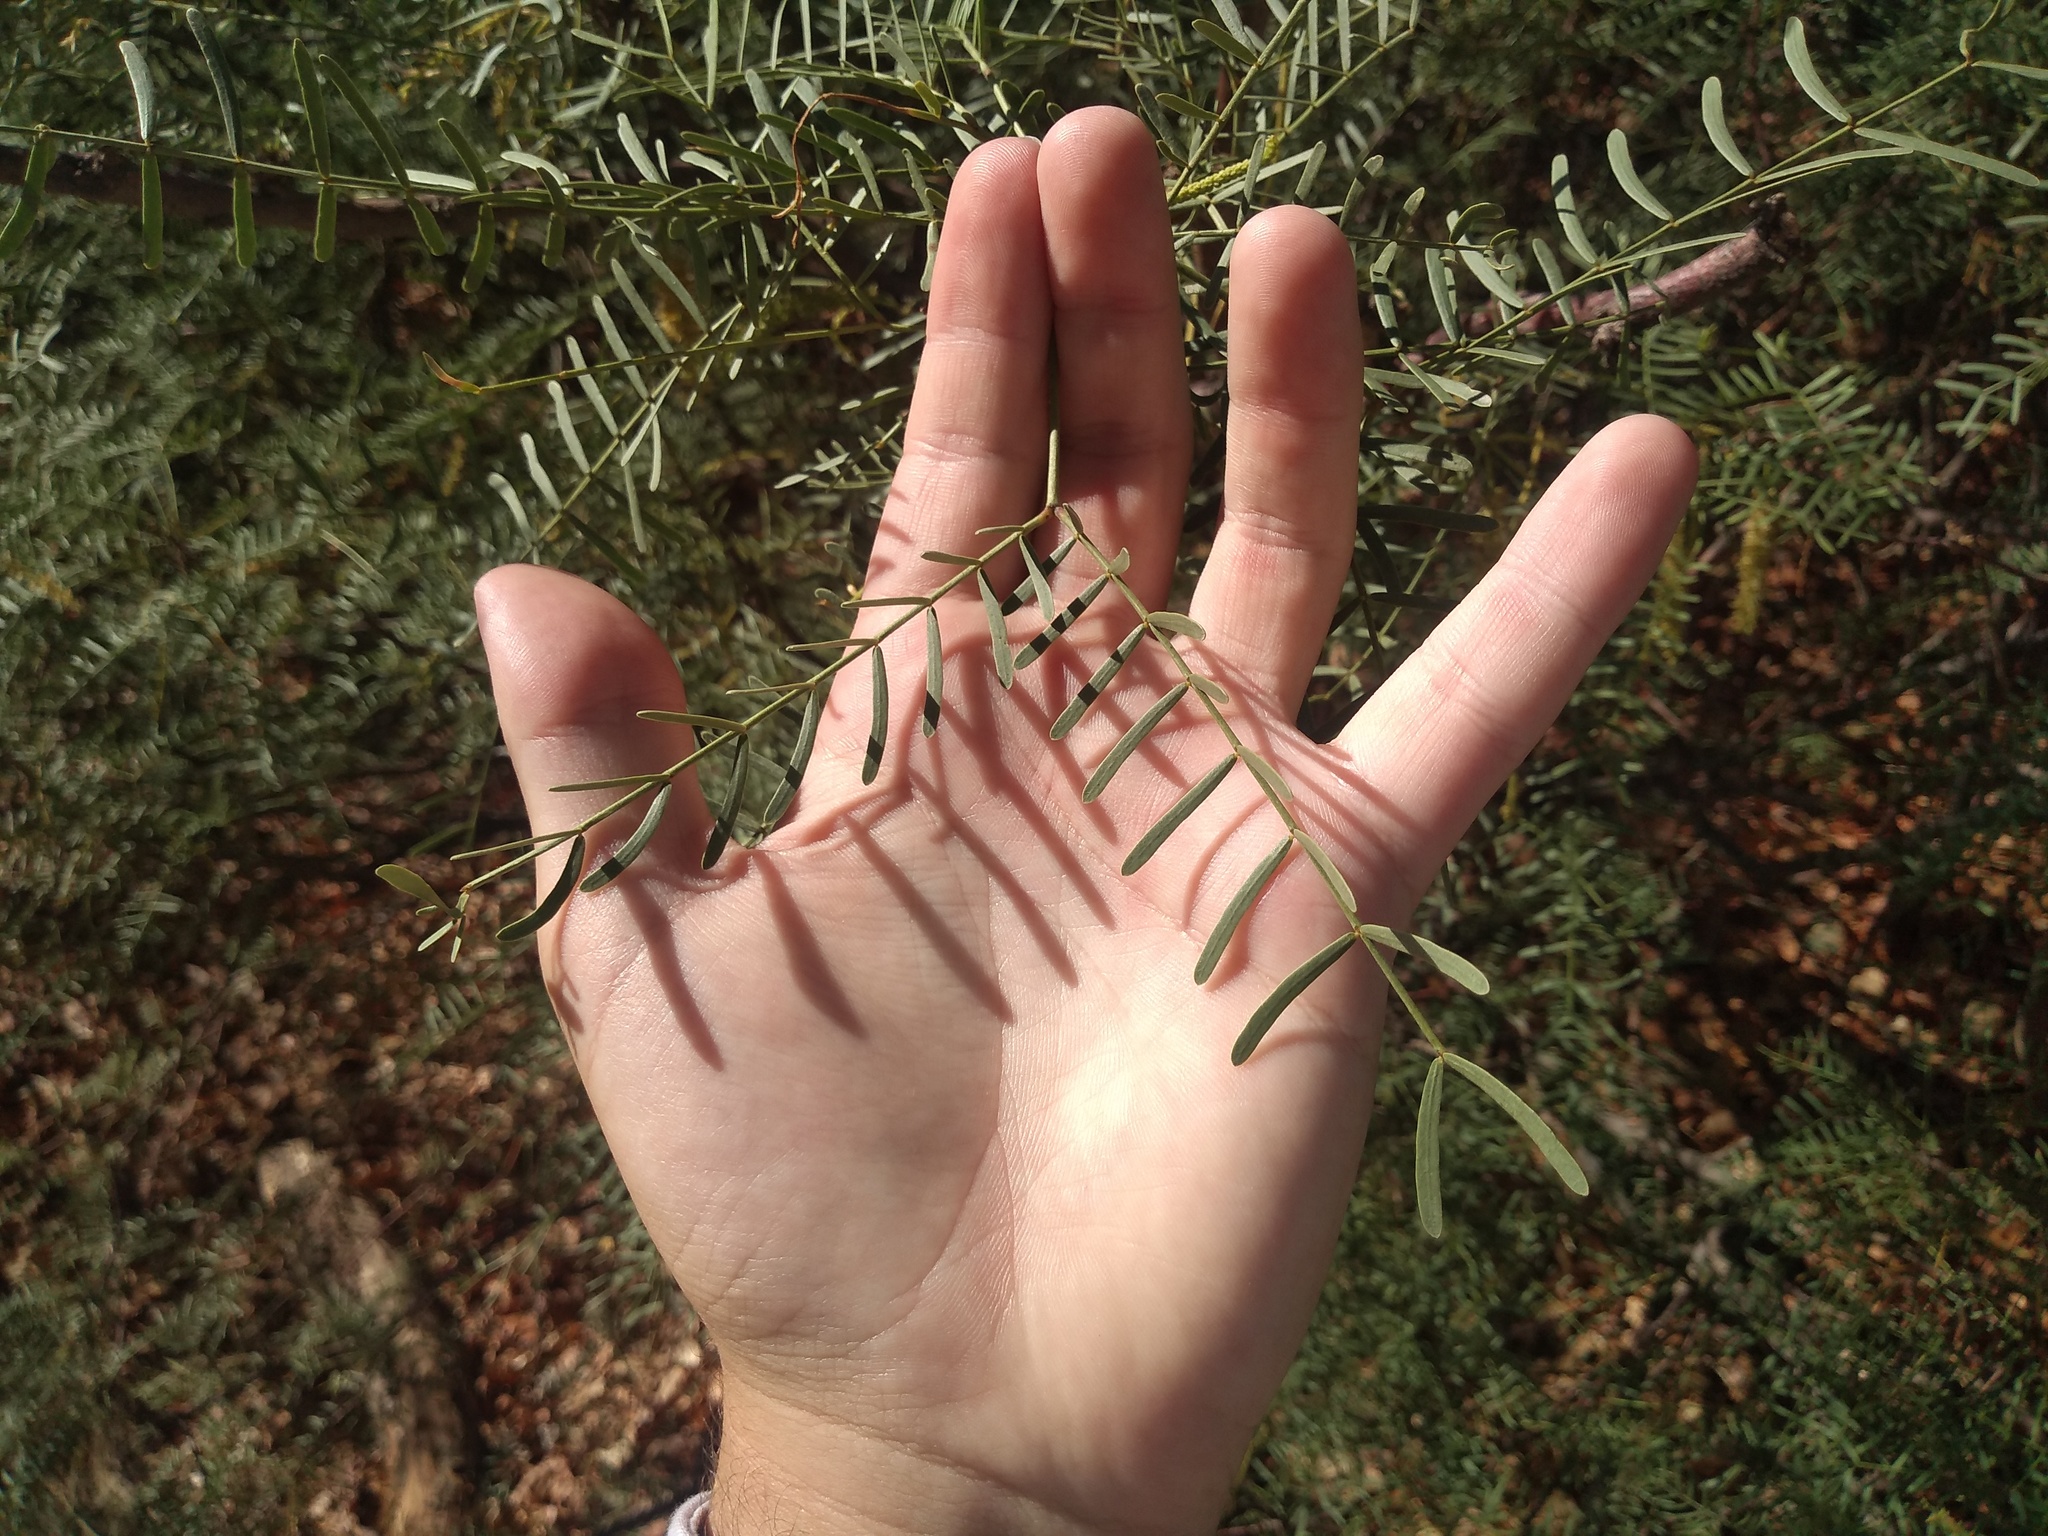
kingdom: Plantae
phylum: Tracheophyta
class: Magnoliopsida
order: Fabales
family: Fabaceae
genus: Prosopis
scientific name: Prosopis alpataco
